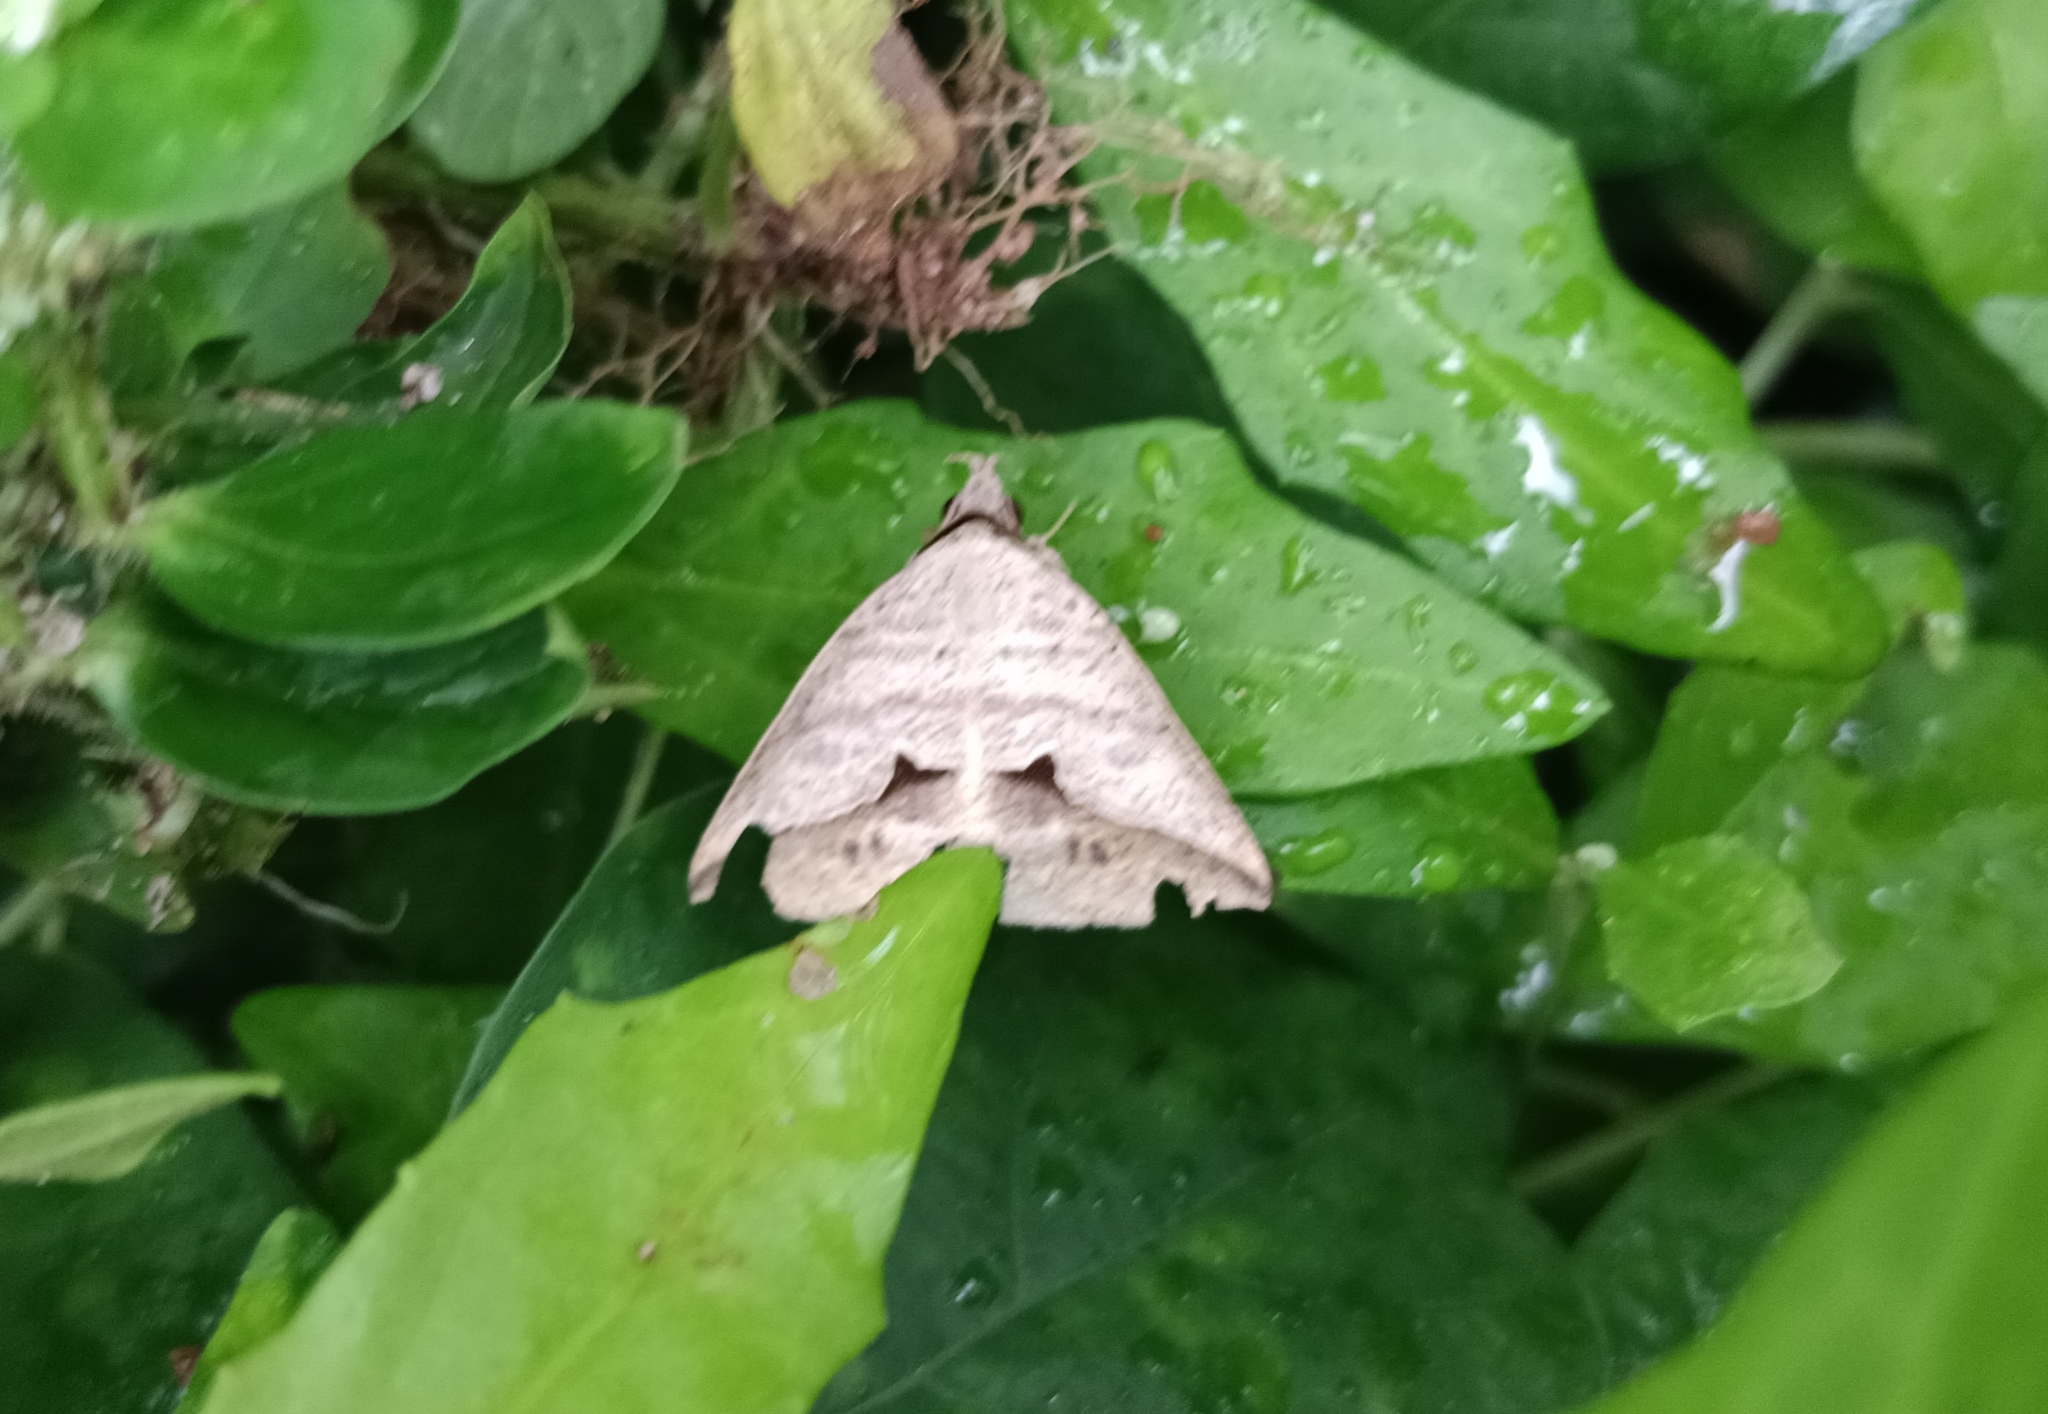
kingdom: Animalia
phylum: Arthropoda
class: Insecta
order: Lepidoptera
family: Erebidae
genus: Dierna
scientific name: Dierna patibulum
